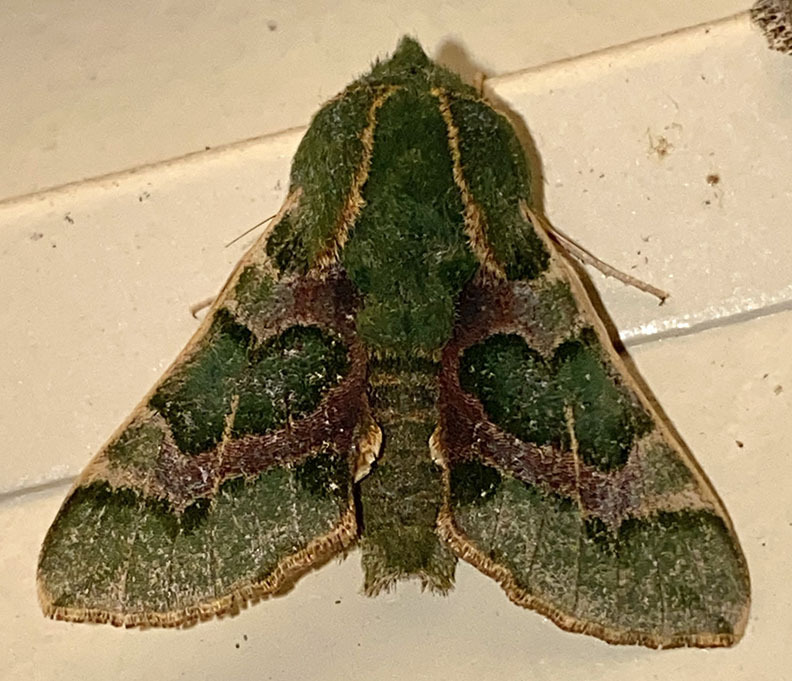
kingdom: Animalia
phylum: Arthropoda
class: Insecta
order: Lepidoptera
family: Sphingidae
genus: Proserpinus
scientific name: Proserpinus lucidus
